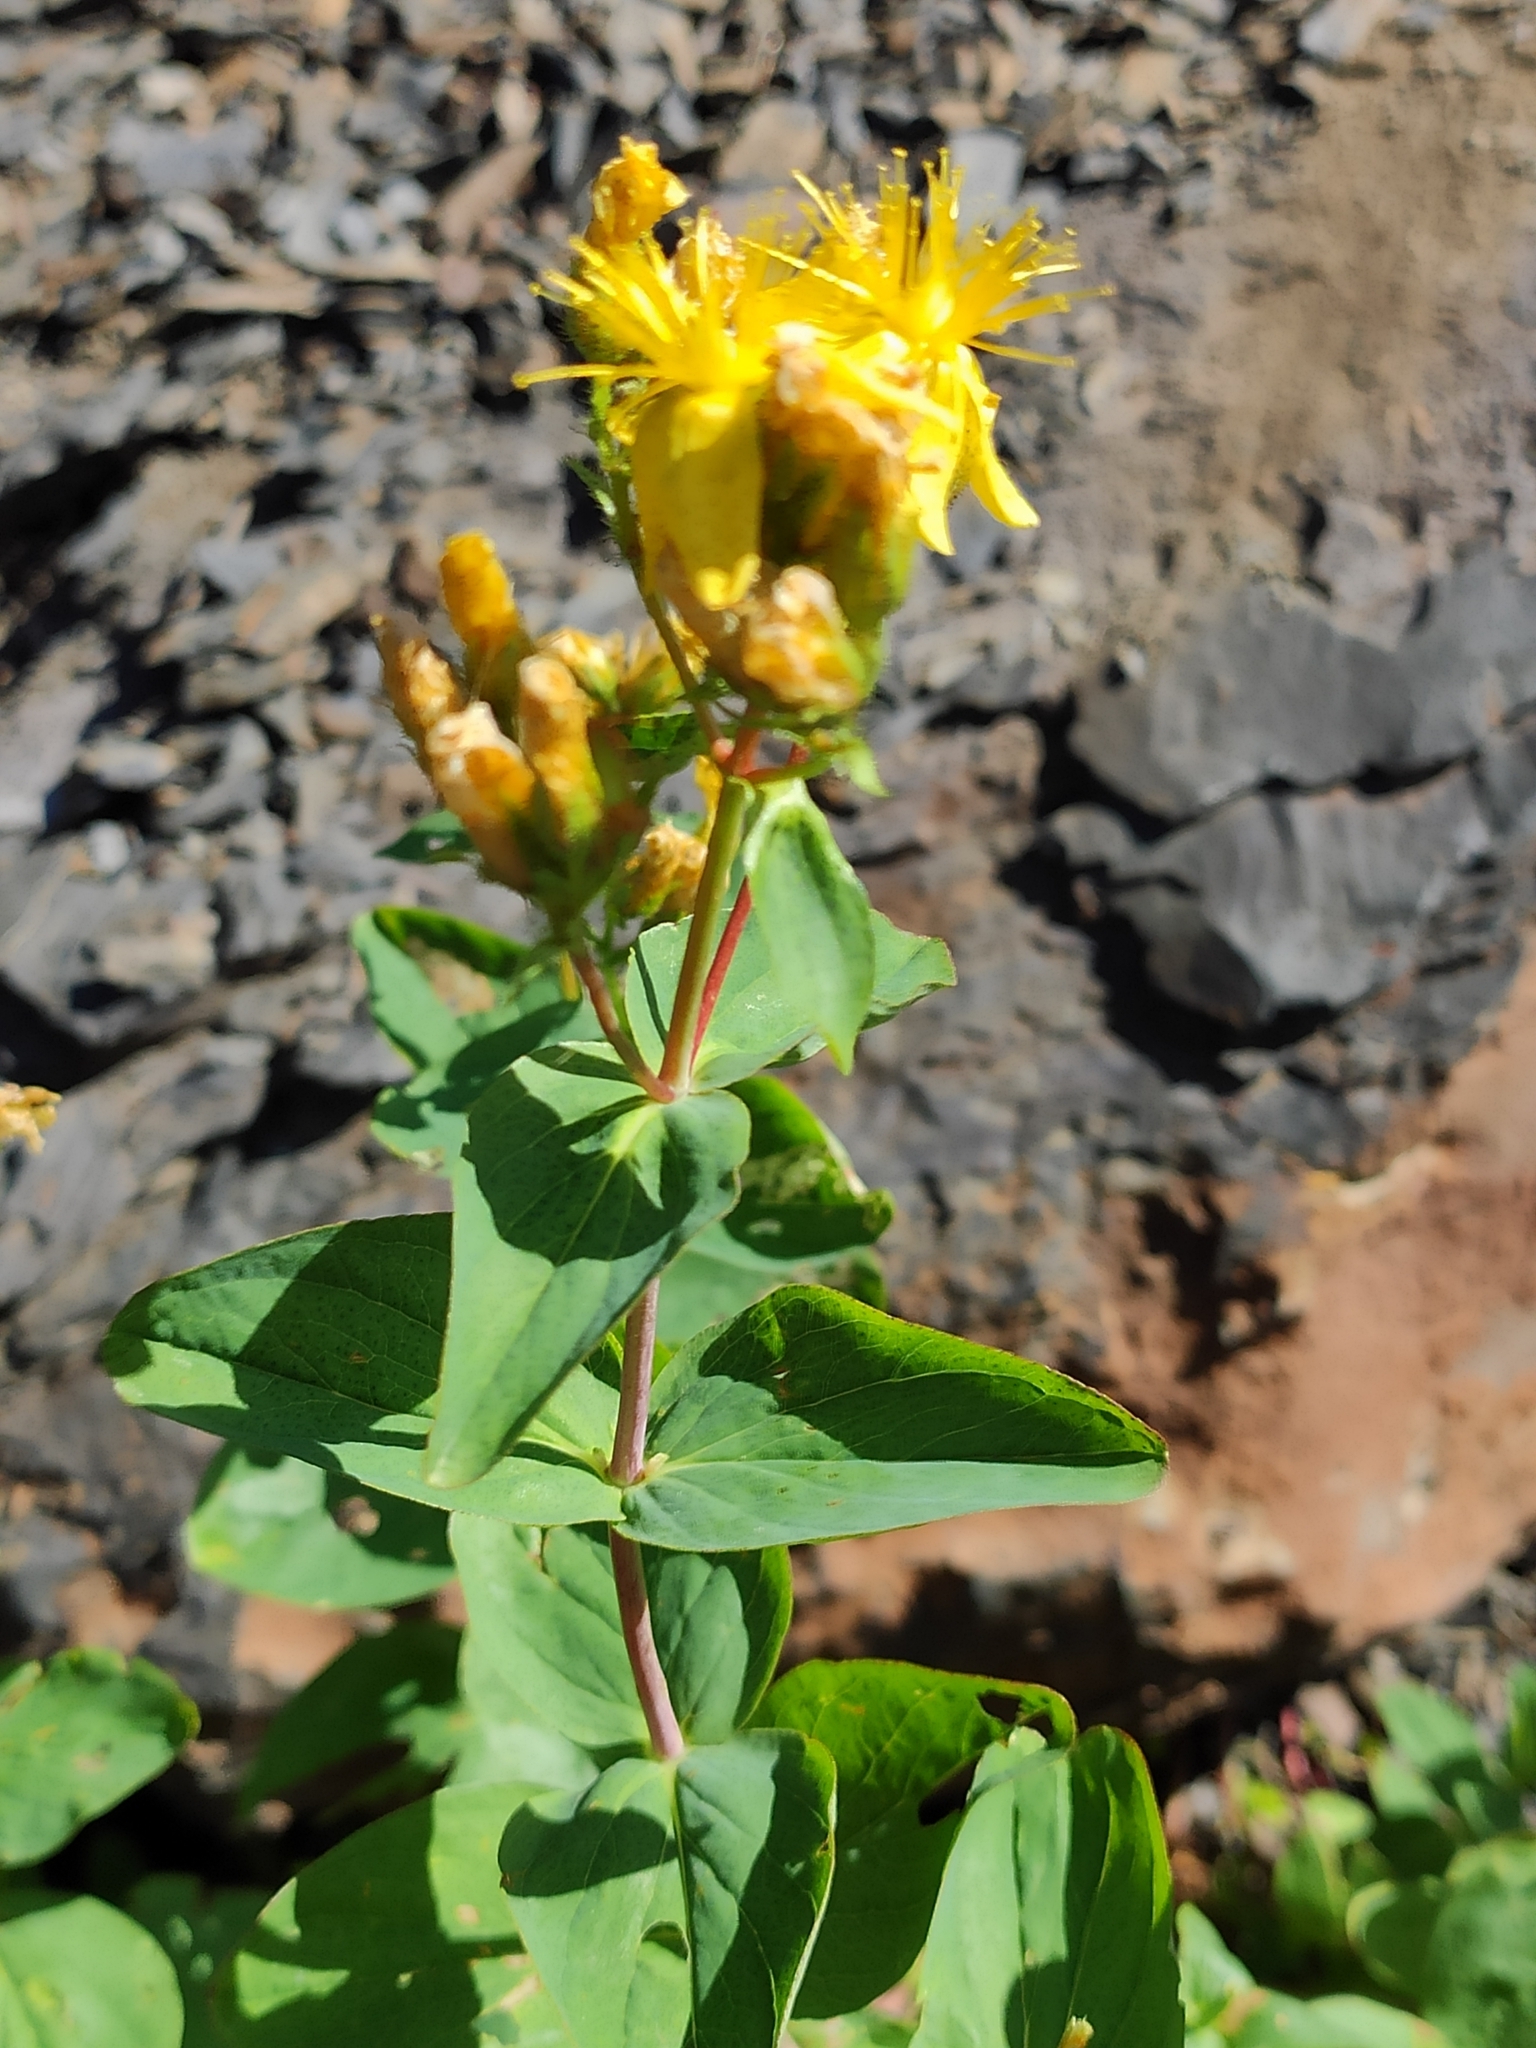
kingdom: Plantae
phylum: Tracheophyta
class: Magnoliopsida
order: Malpighiales
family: Hypericaceae
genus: Hypericum
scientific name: Hypericum bithynicum
